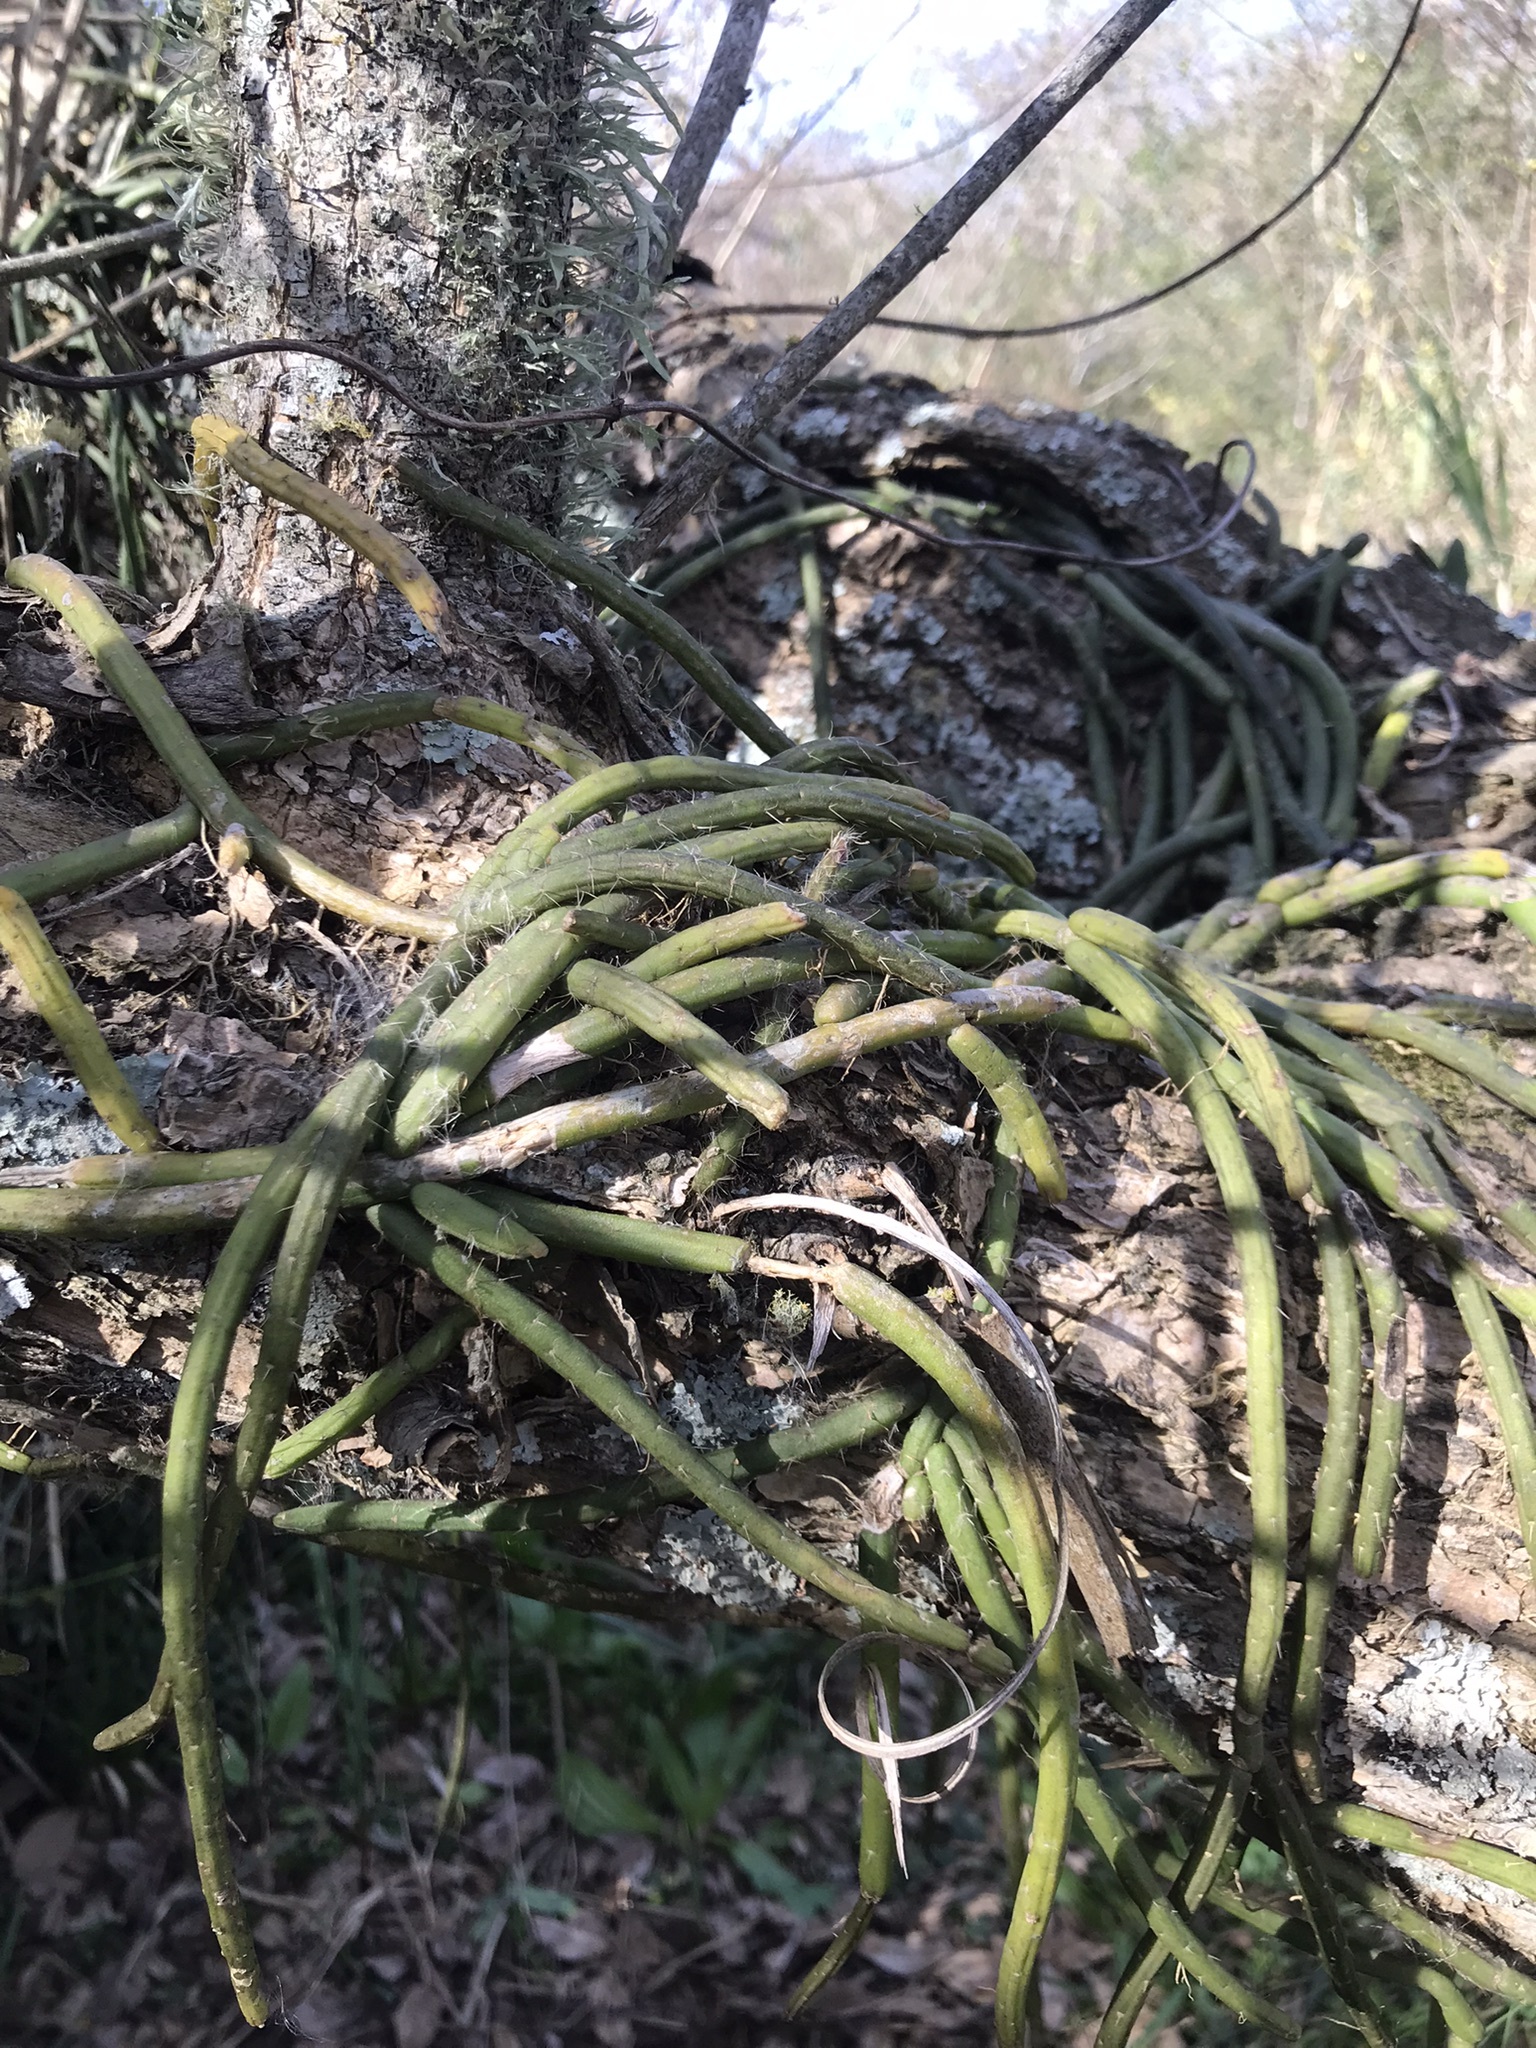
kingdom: Plantae
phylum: Tracheophyta
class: Magnoliopsida
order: Caryophyllales
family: Cactaceae
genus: Lepismium
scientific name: Lepismium lumbricoides
